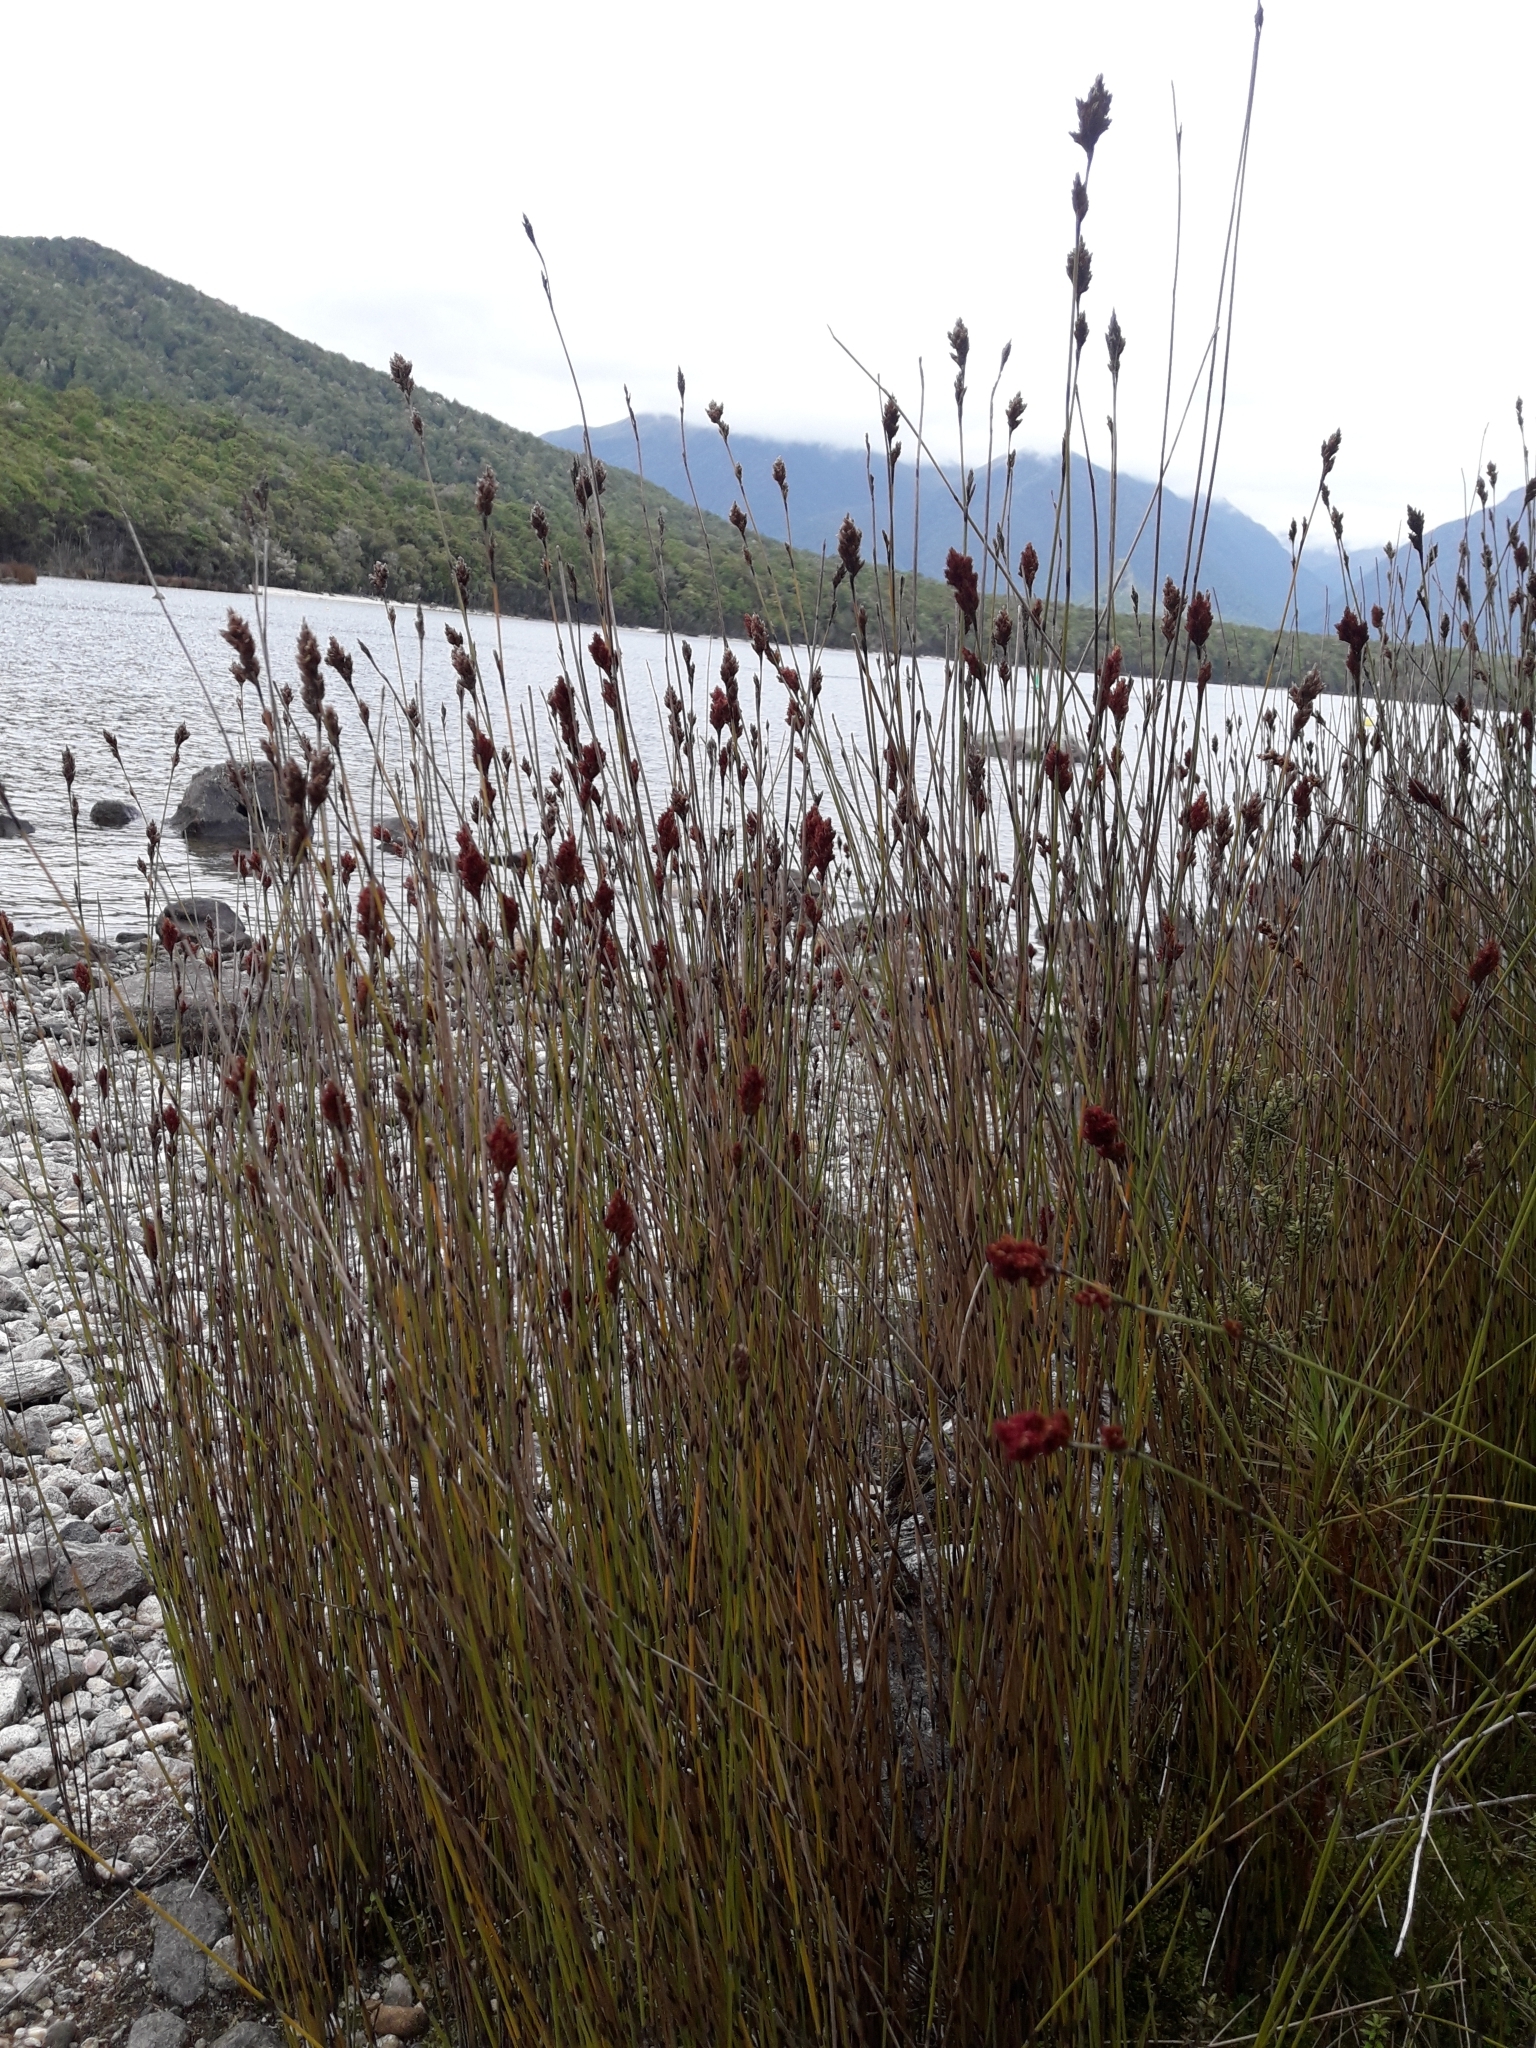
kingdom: Plantae
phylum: Tracheophyta
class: Liliopsida
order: Poales
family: Restionaceae
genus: Apodasmia
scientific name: Apodasmia similis
